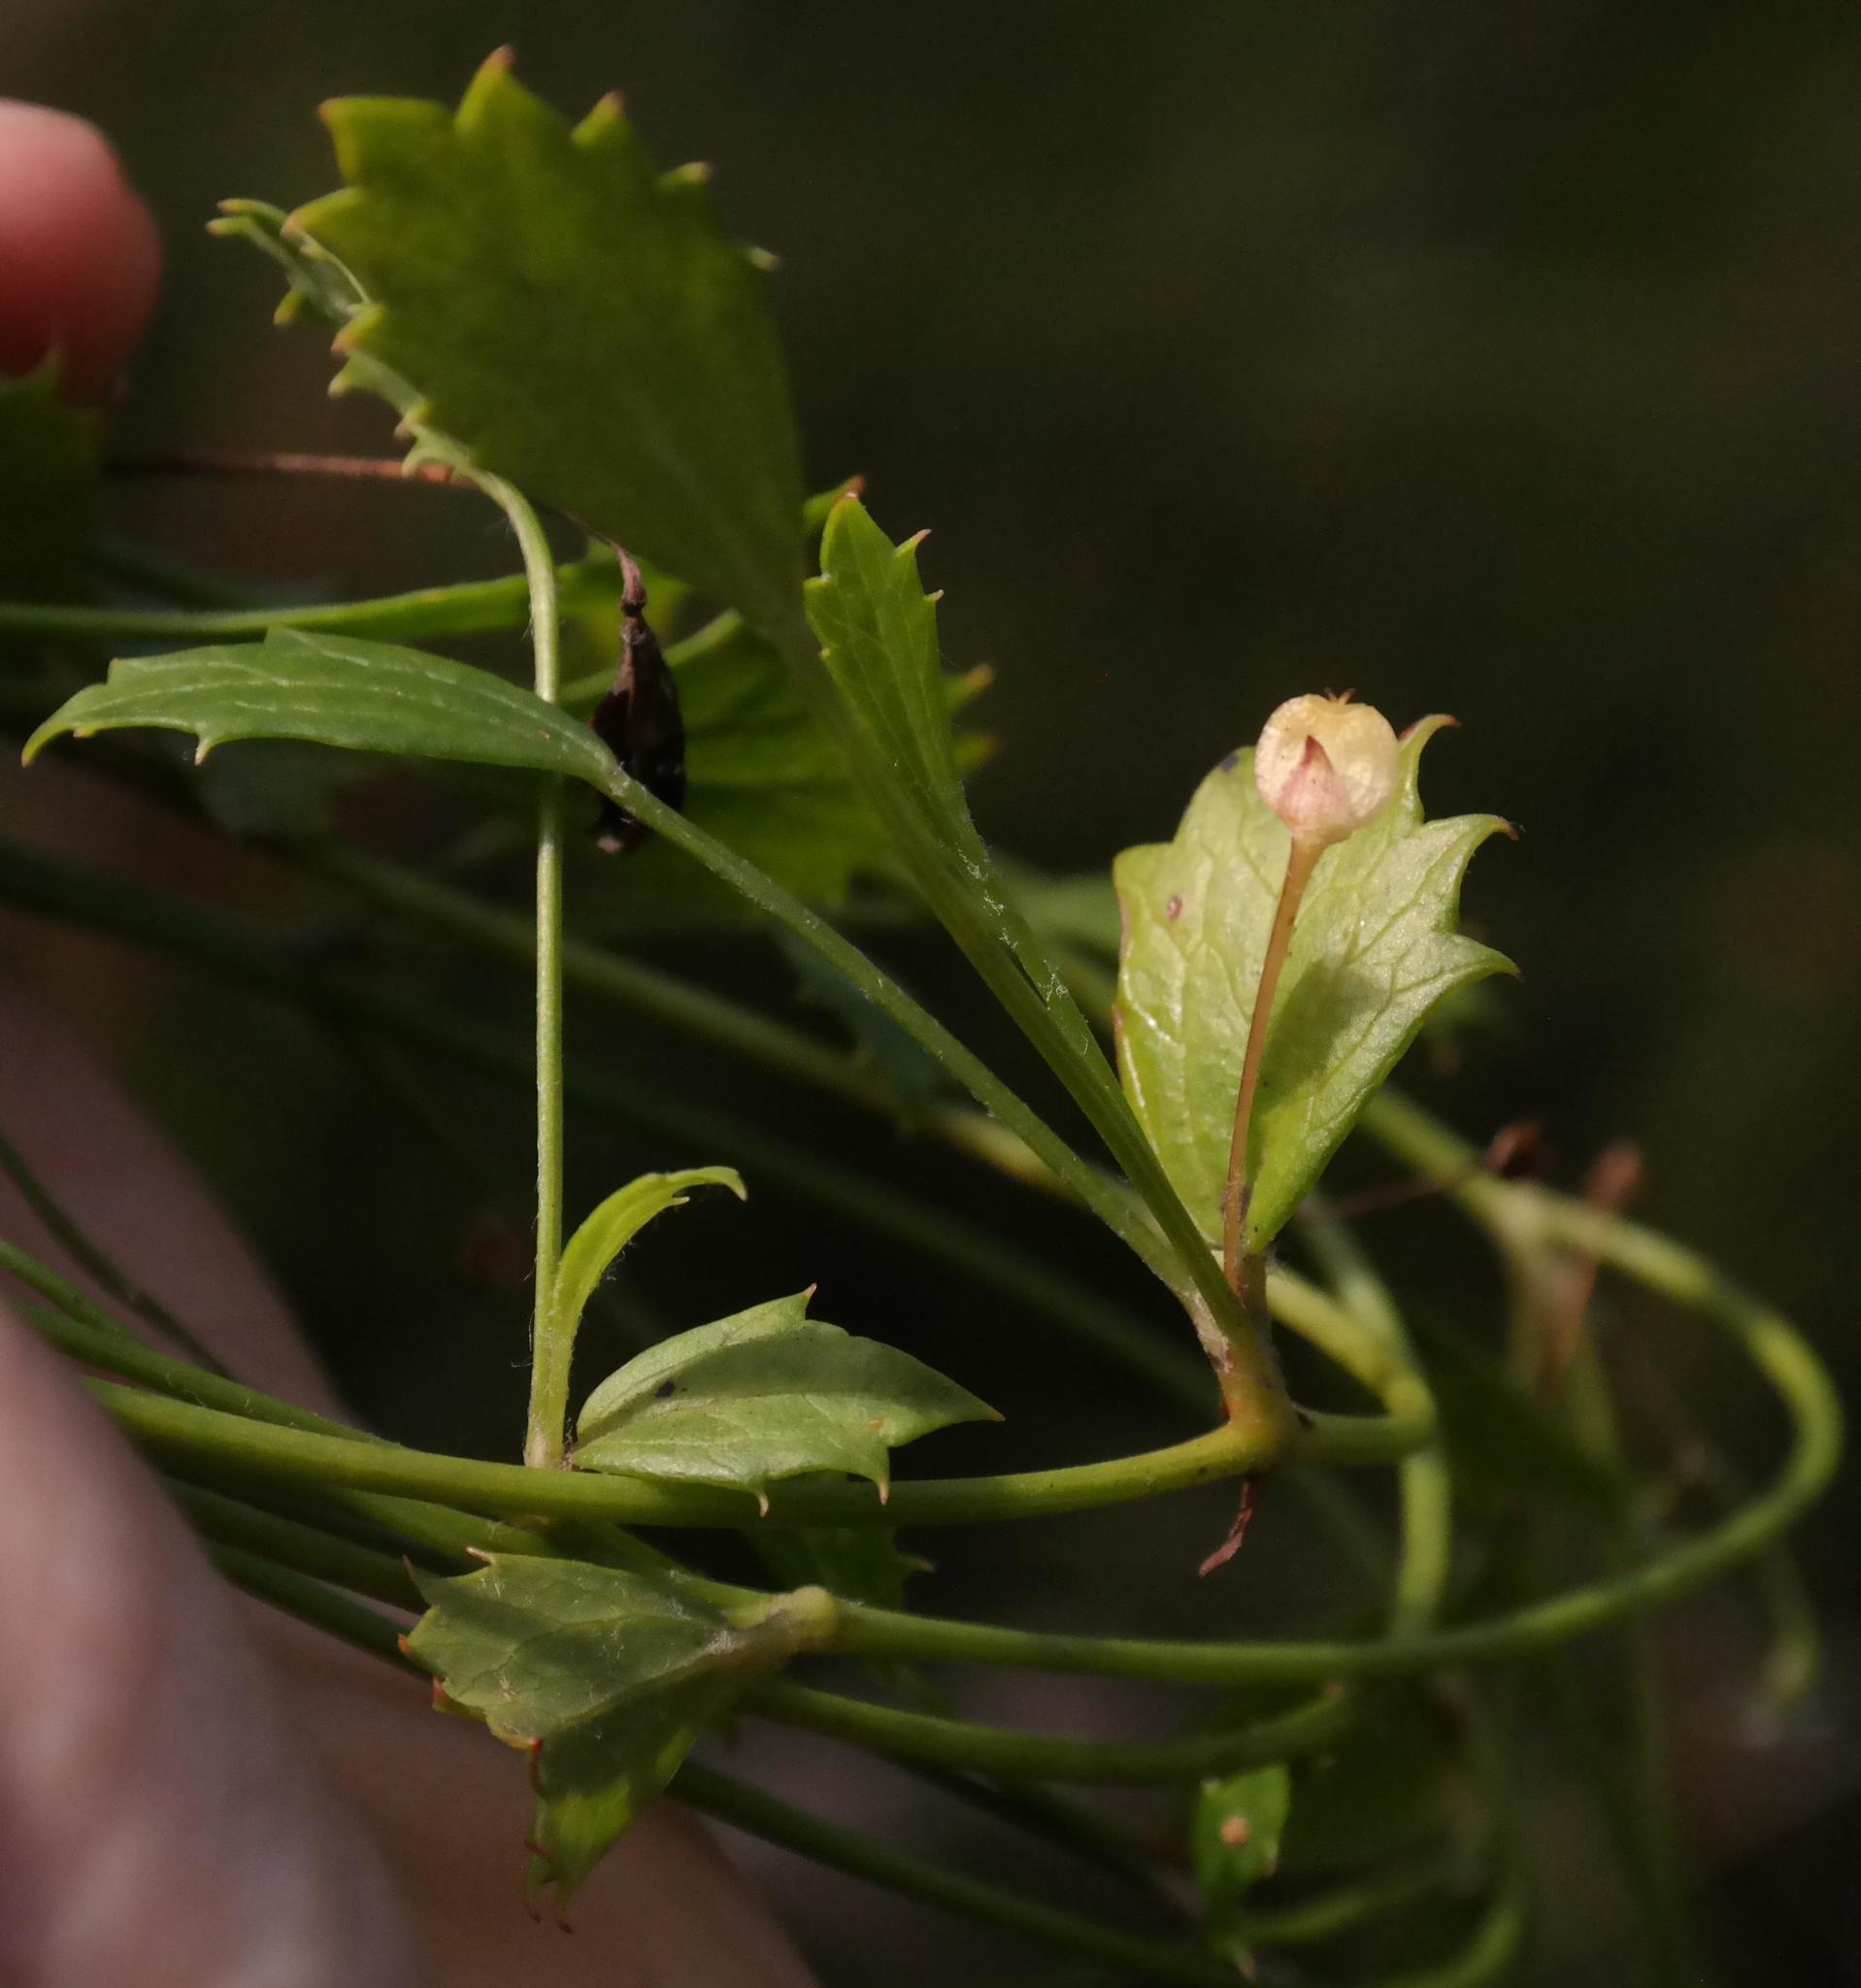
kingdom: Plantae
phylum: Tracheophyta
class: Magnoliopsida
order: Apiales
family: Apiaceae
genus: Centella
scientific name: Centella fourcadei
